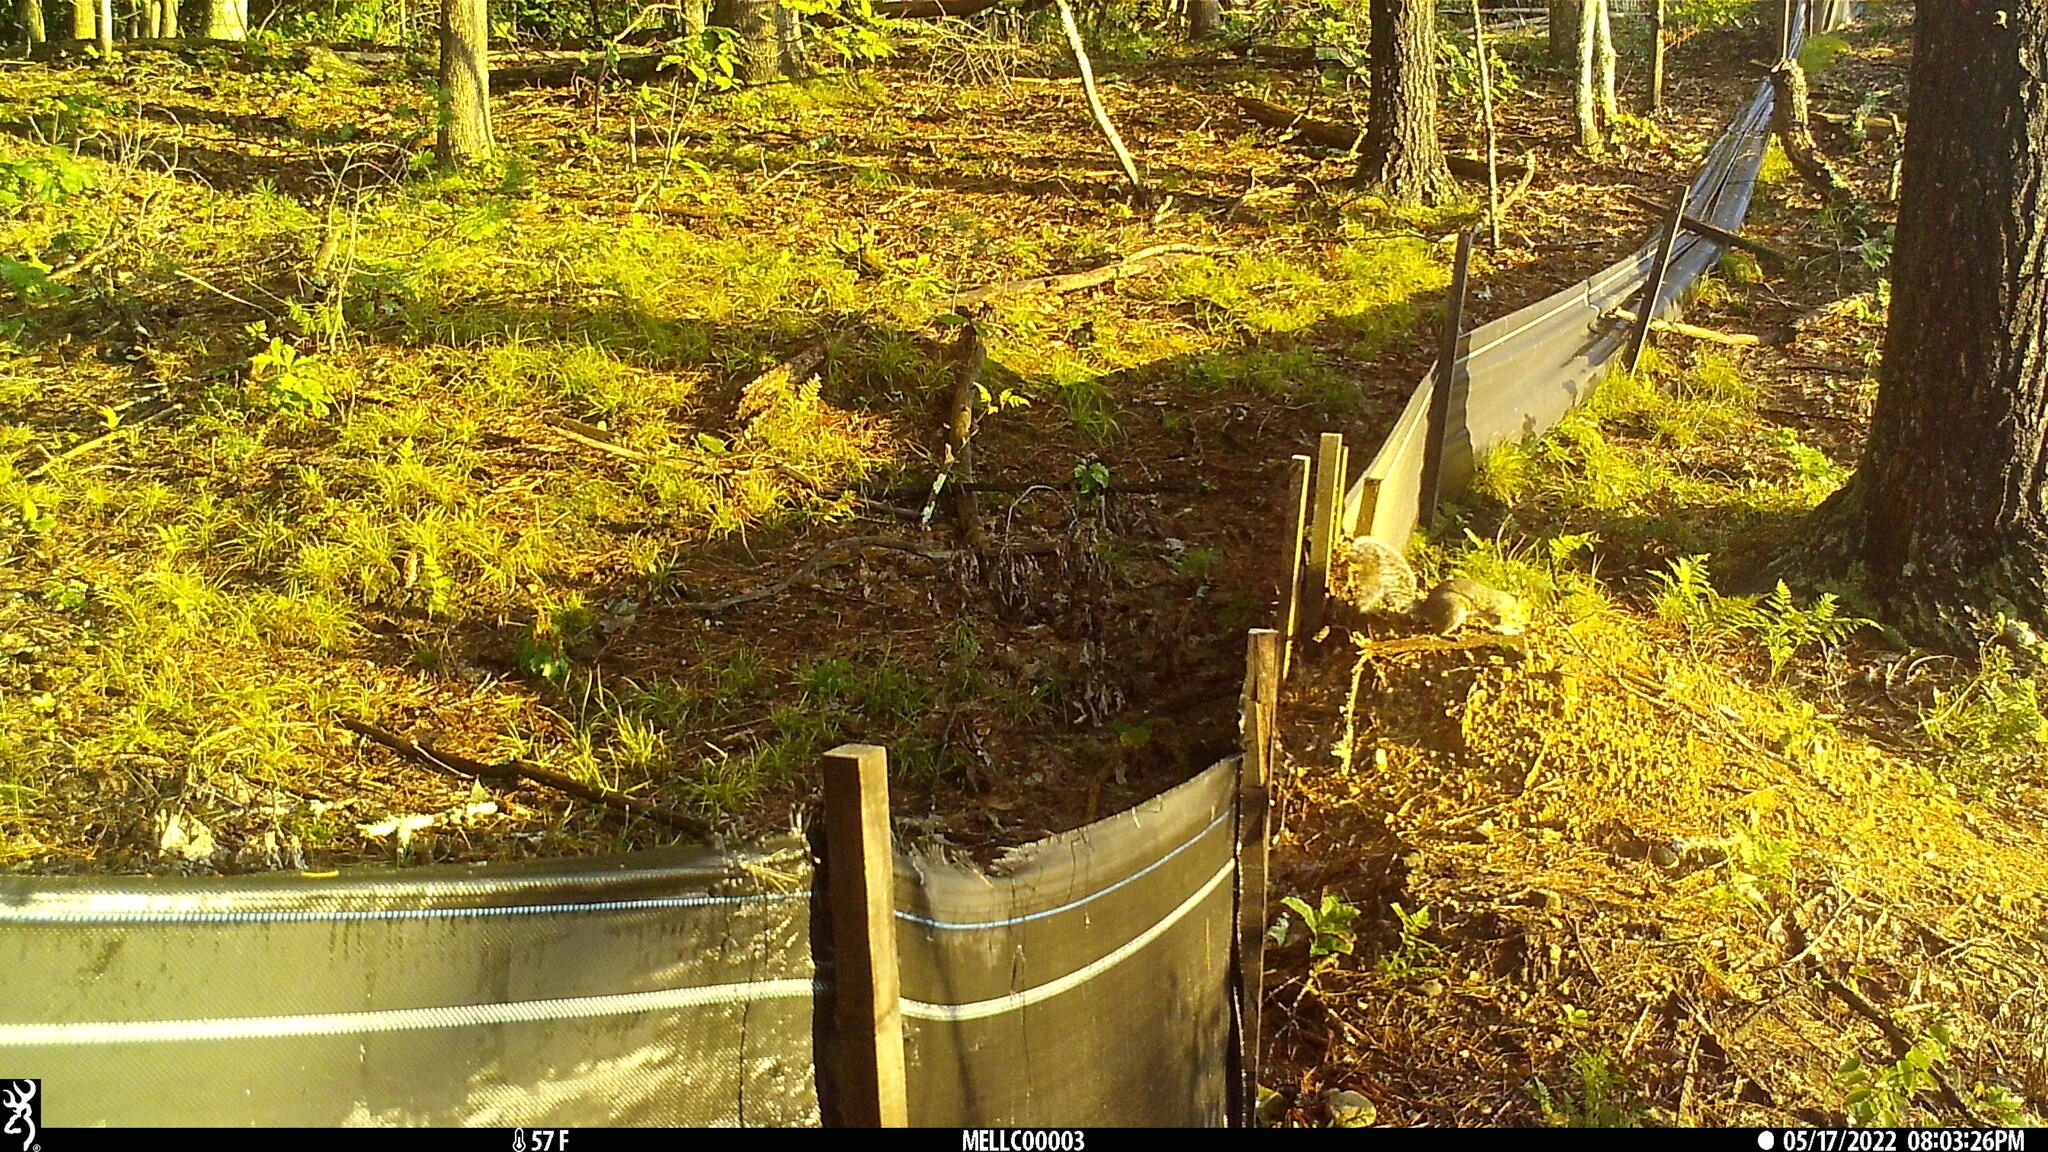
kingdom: Animalia
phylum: Chordata
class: Mammalia
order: Rodentia
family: Sciuridae
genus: Sciurus
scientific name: Sciurus carolinensis
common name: Eastern gray squirrel
